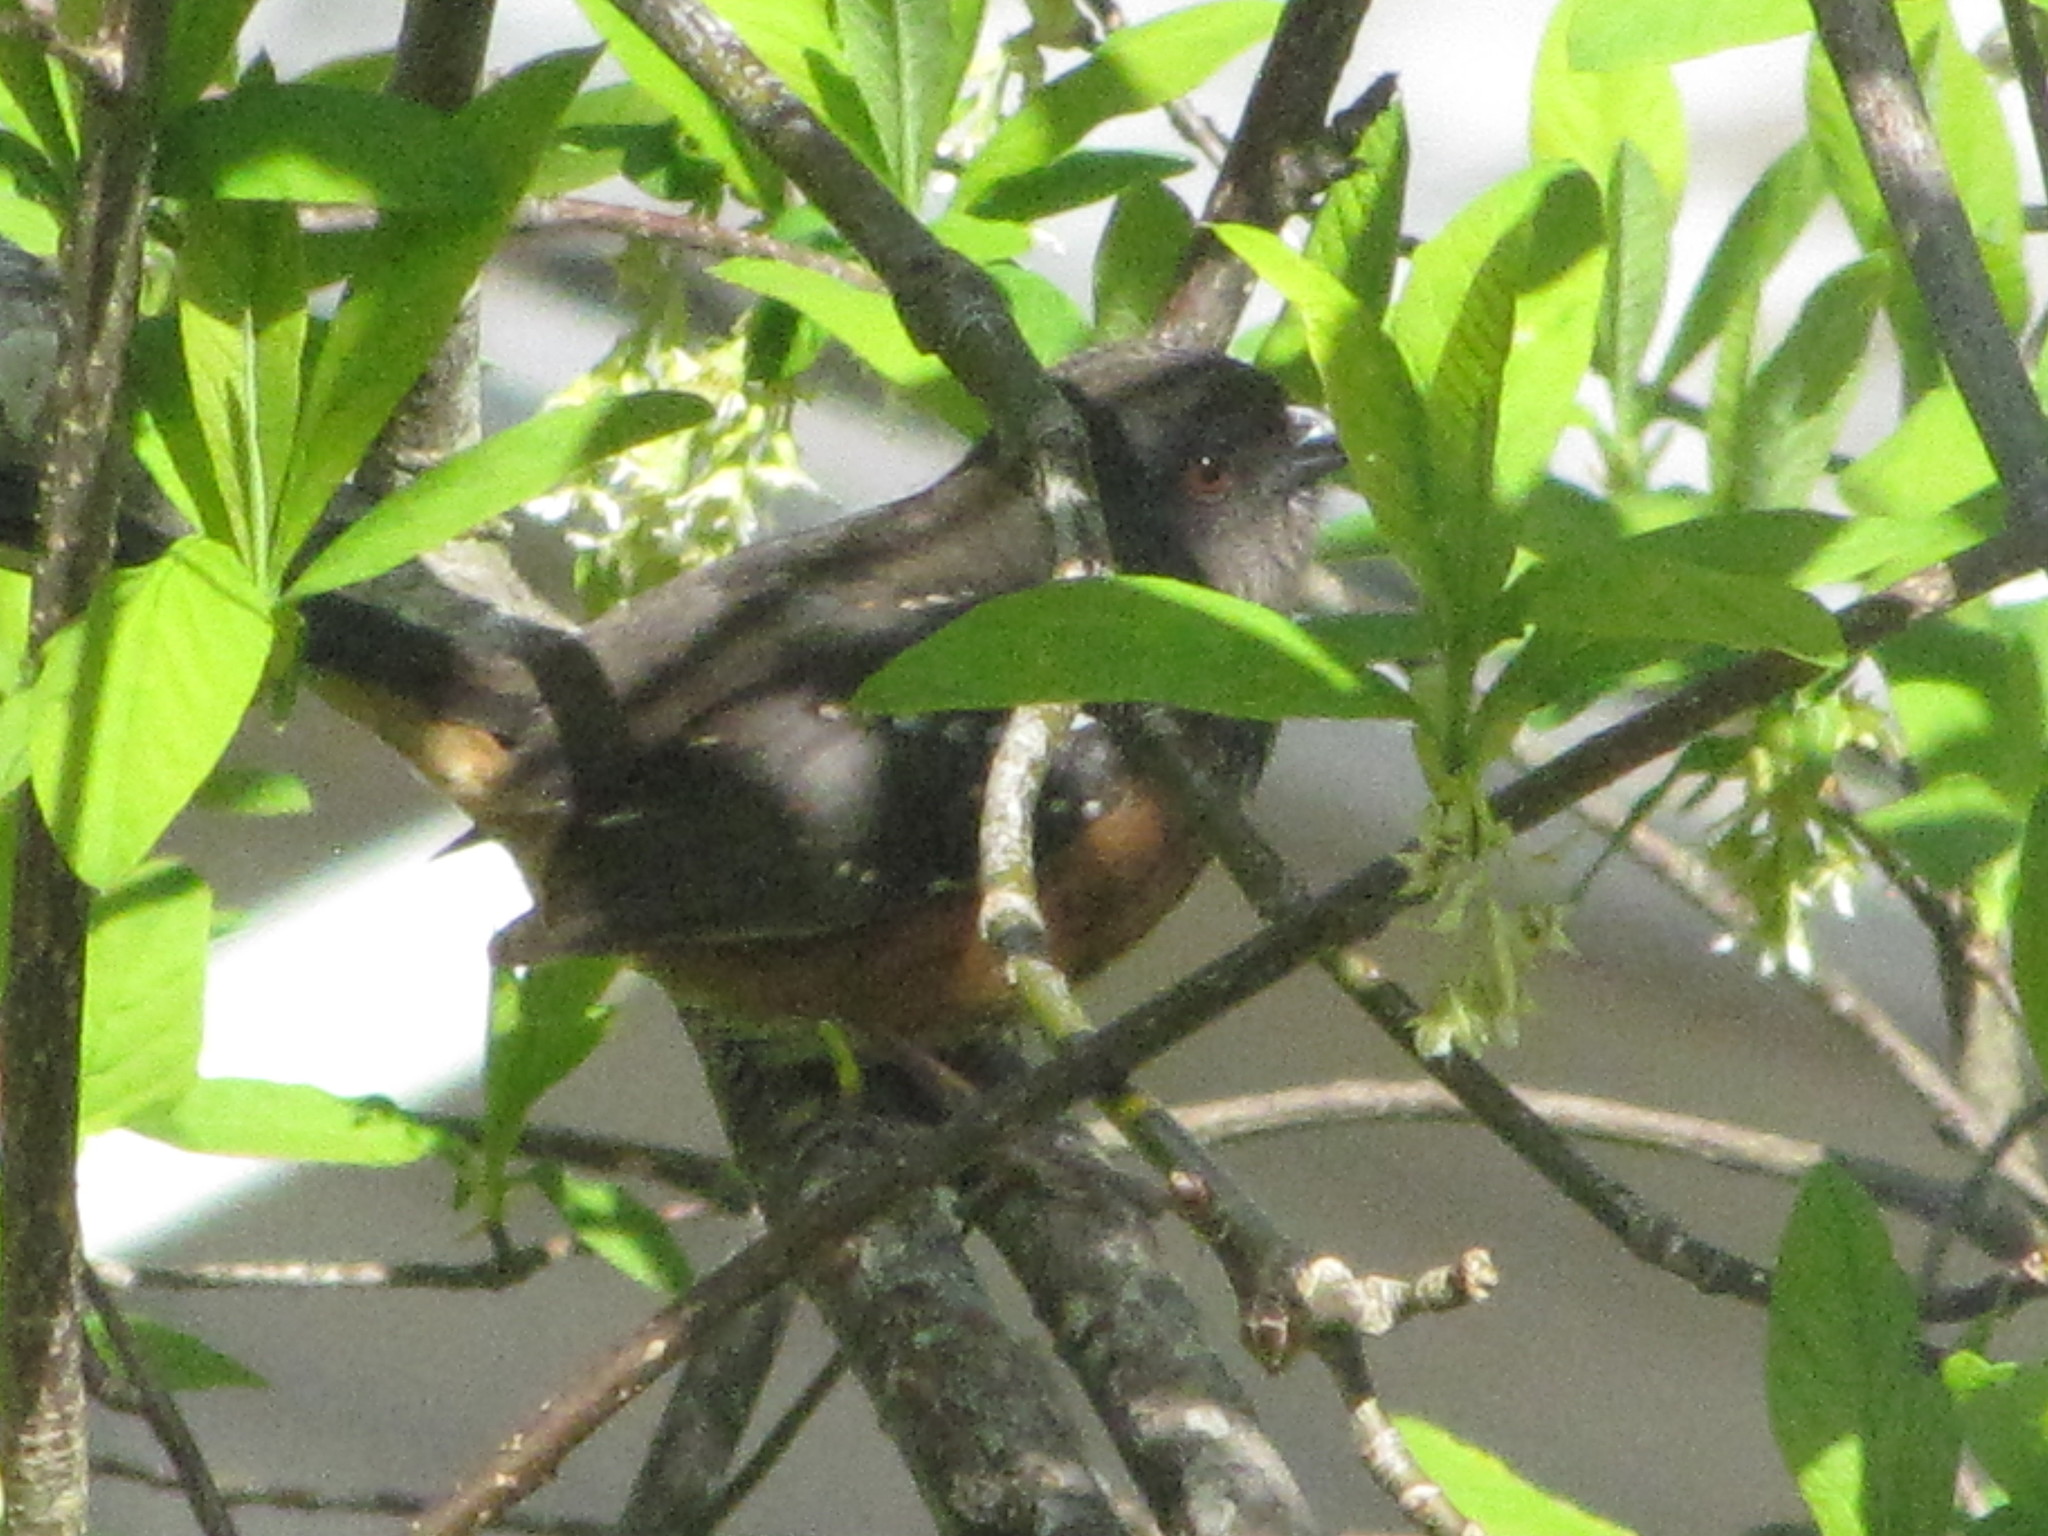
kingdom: Animalia
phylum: Chordata
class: Aves
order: Passeriformes
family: Passerellidae
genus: Pipilo
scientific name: Pipilo maculatus
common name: Spotted towhee
